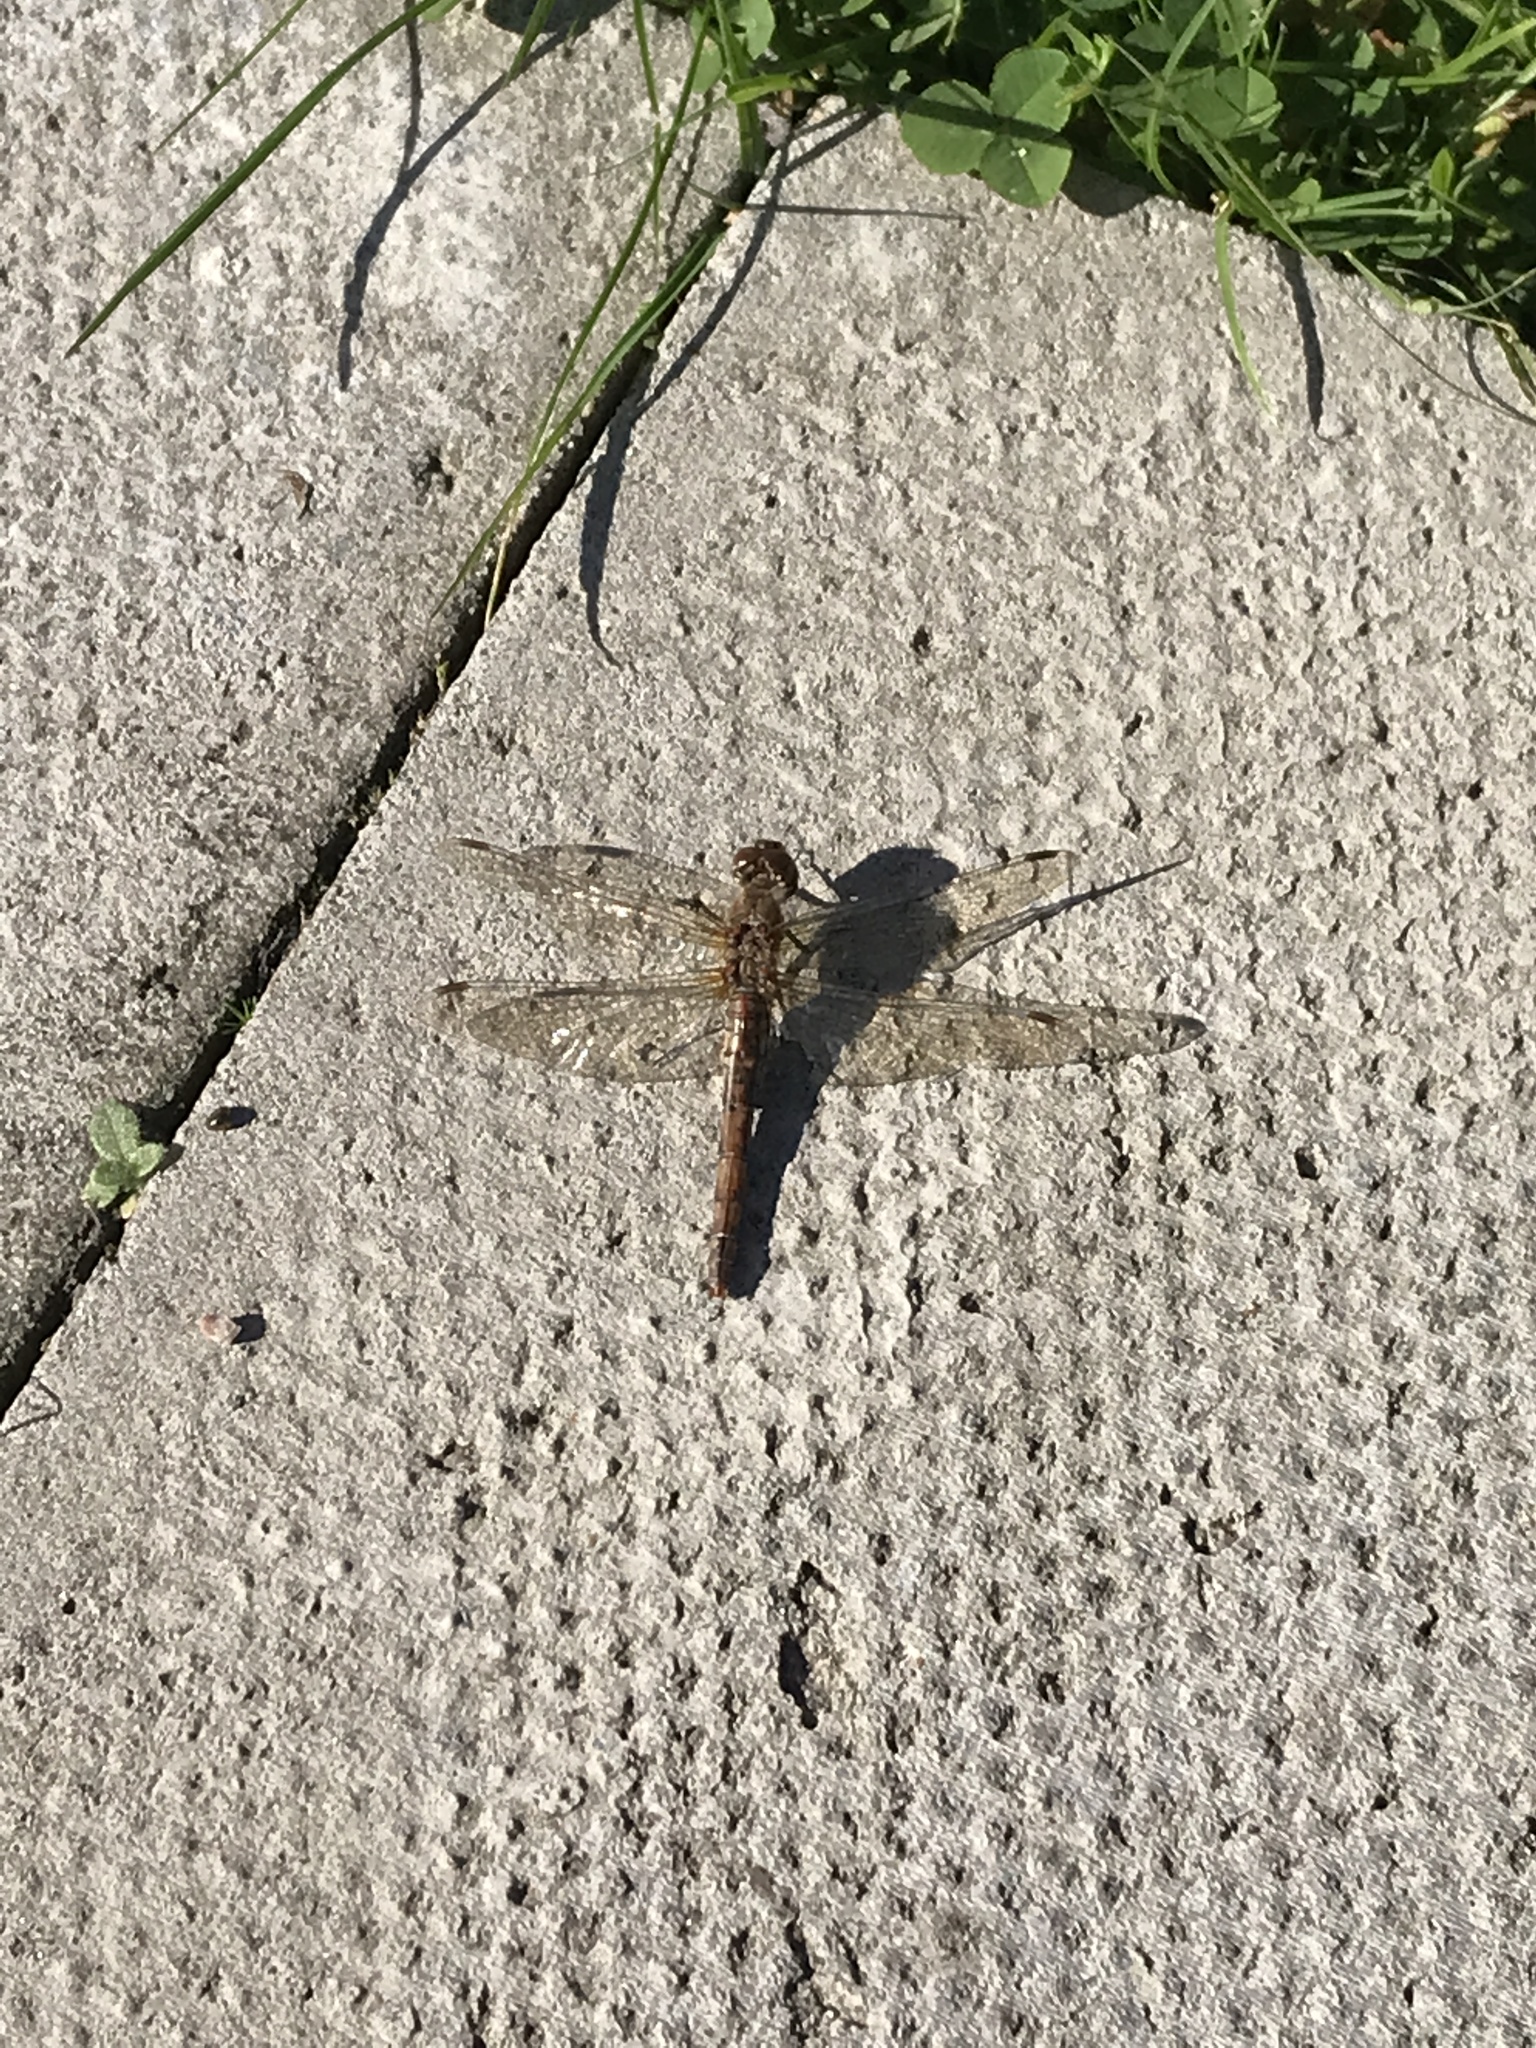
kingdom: Animalia
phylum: Arthropoda
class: Insecta
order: Odonata
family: Libellulidae
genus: Sympetrum
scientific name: Sympetrum striolatum
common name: Common darter
